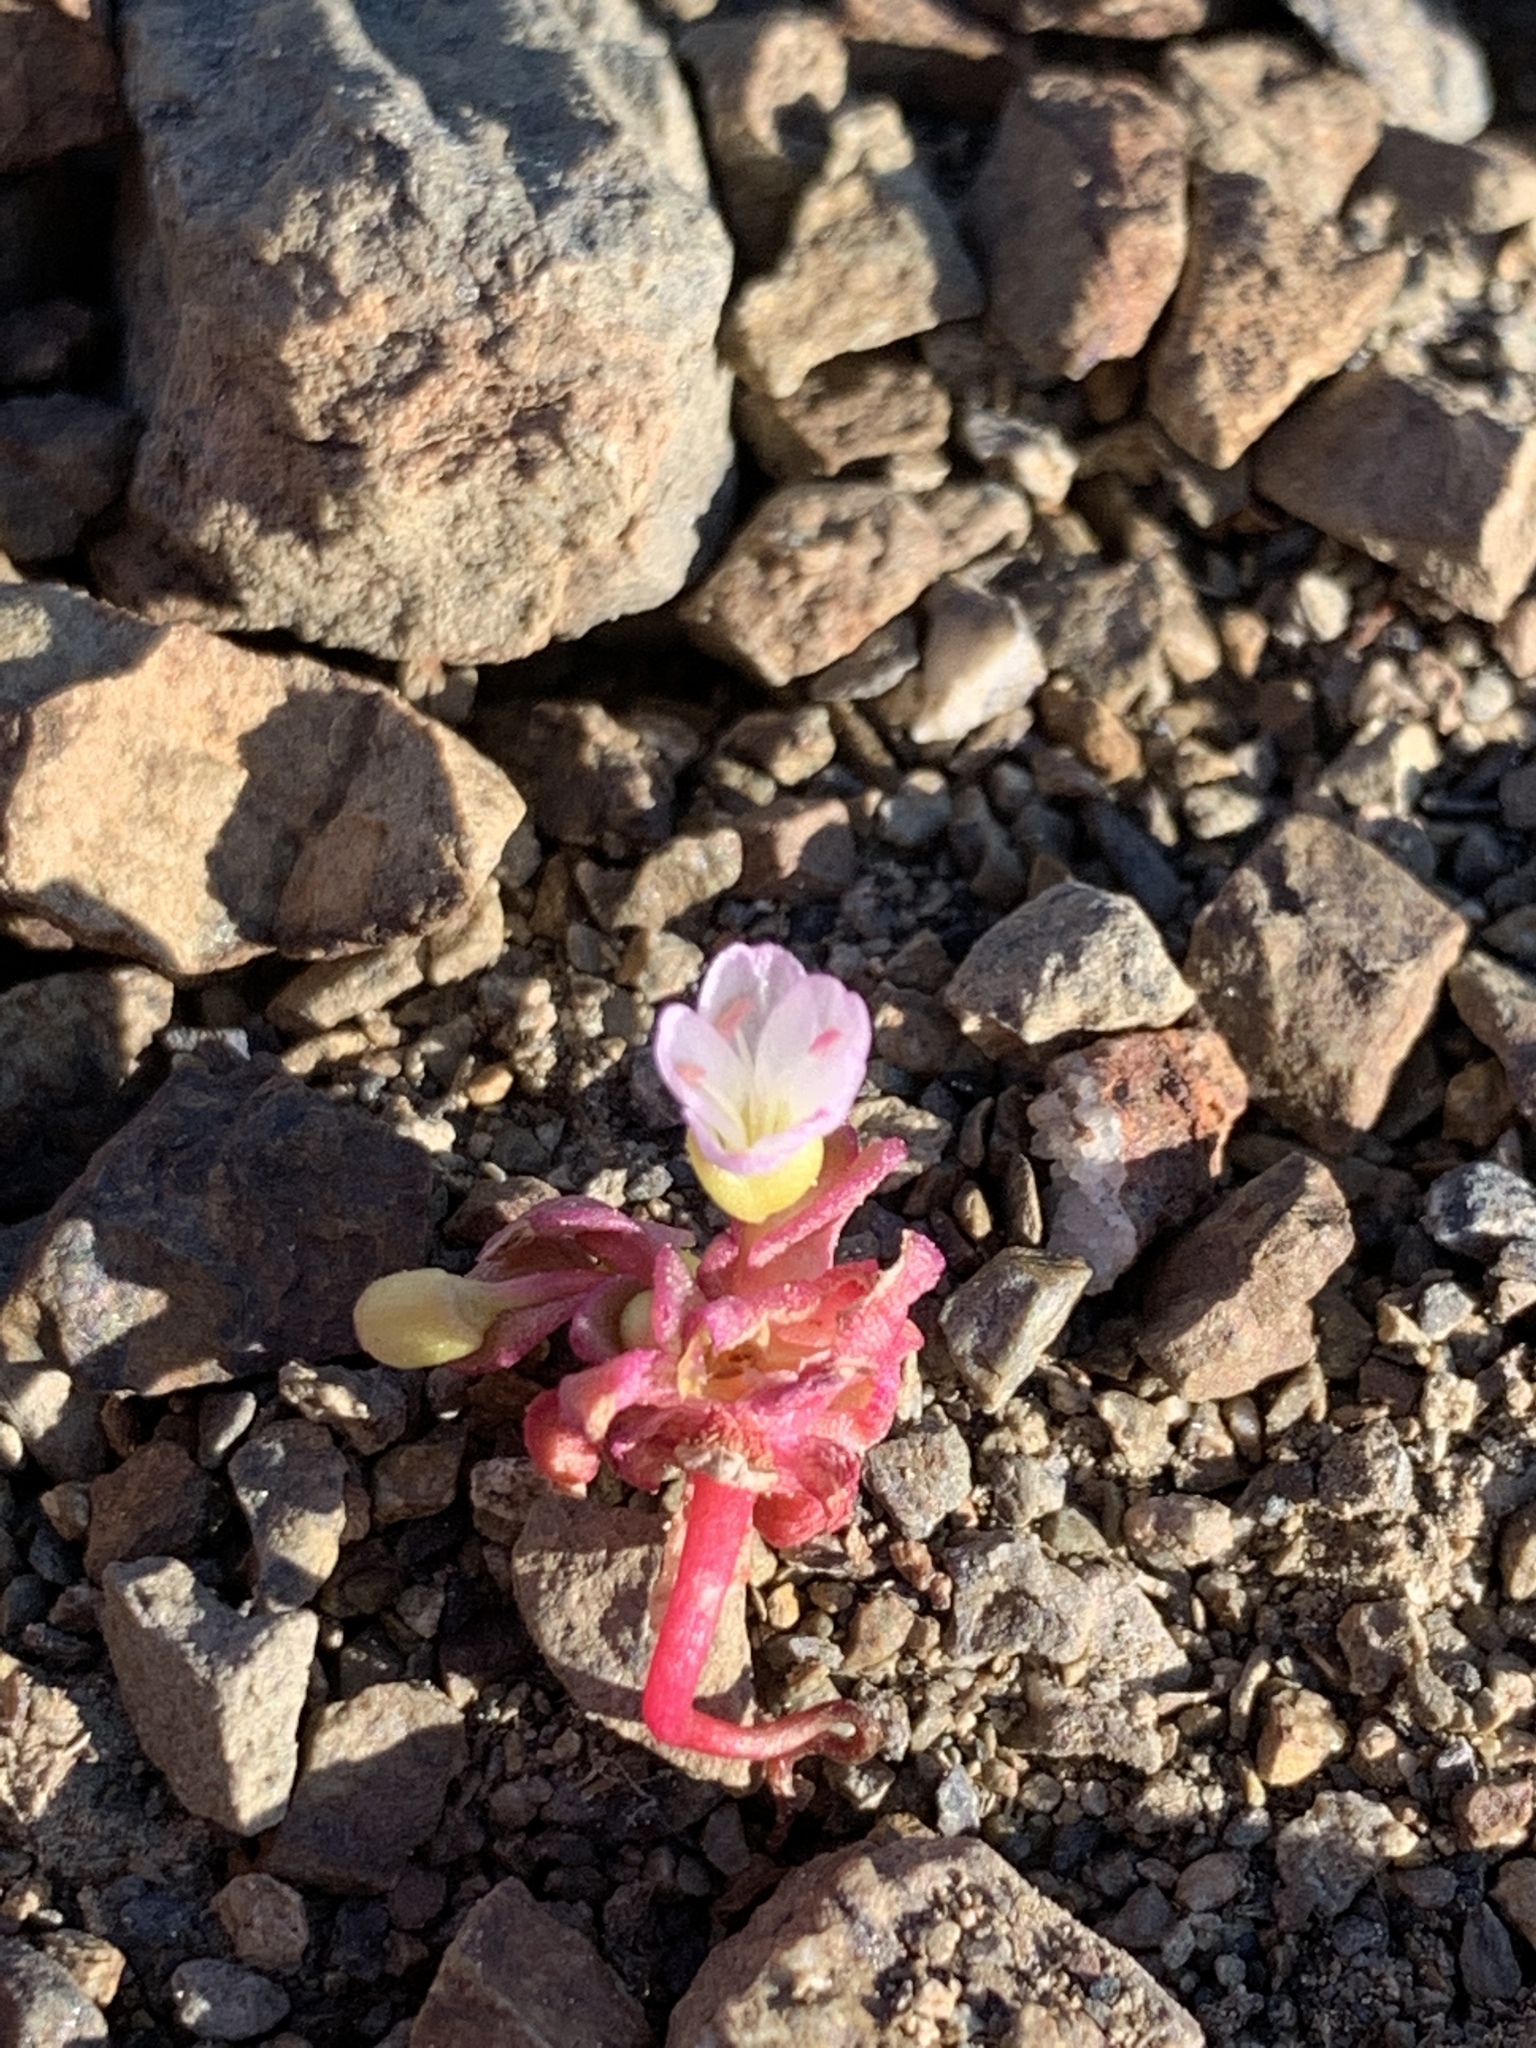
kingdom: Plantae
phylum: Tracheophyta
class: Magnoliopsida
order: Caryophyllales
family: Montiaceae
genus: Claytonia
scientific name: Claytonia saxosa
